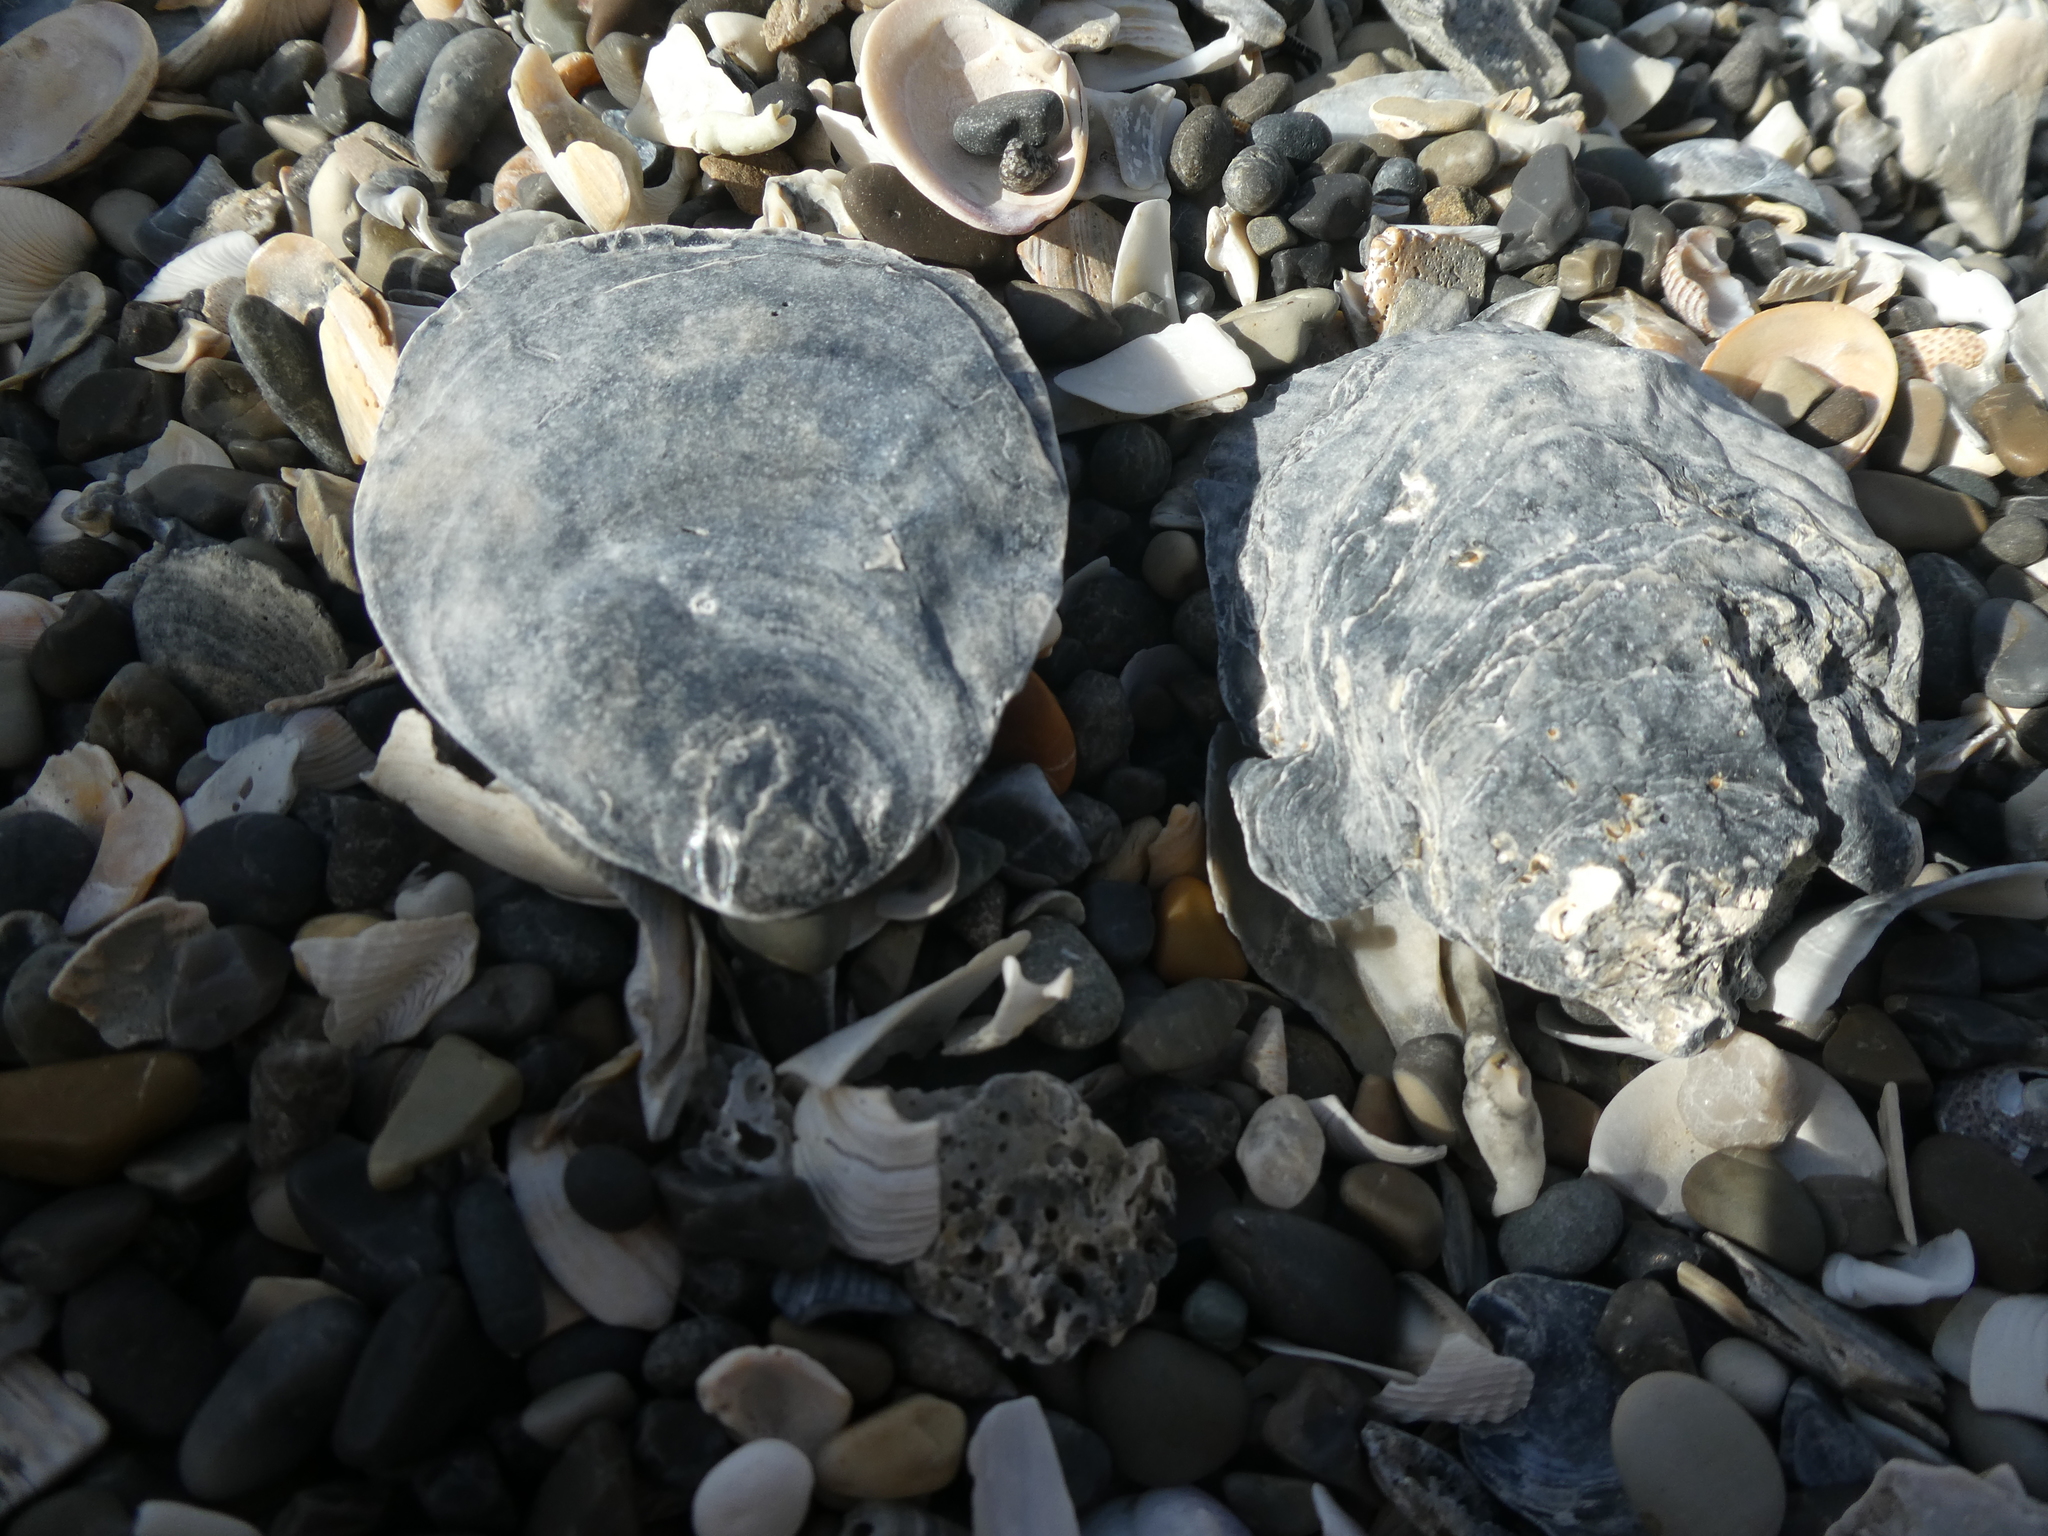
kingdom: Animalia
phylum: Mollusca
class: Bivalvia
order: Ostreida
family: Ostreidae
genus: Ostrea
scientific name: Ostrea chilensis
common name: Chilean oyster
